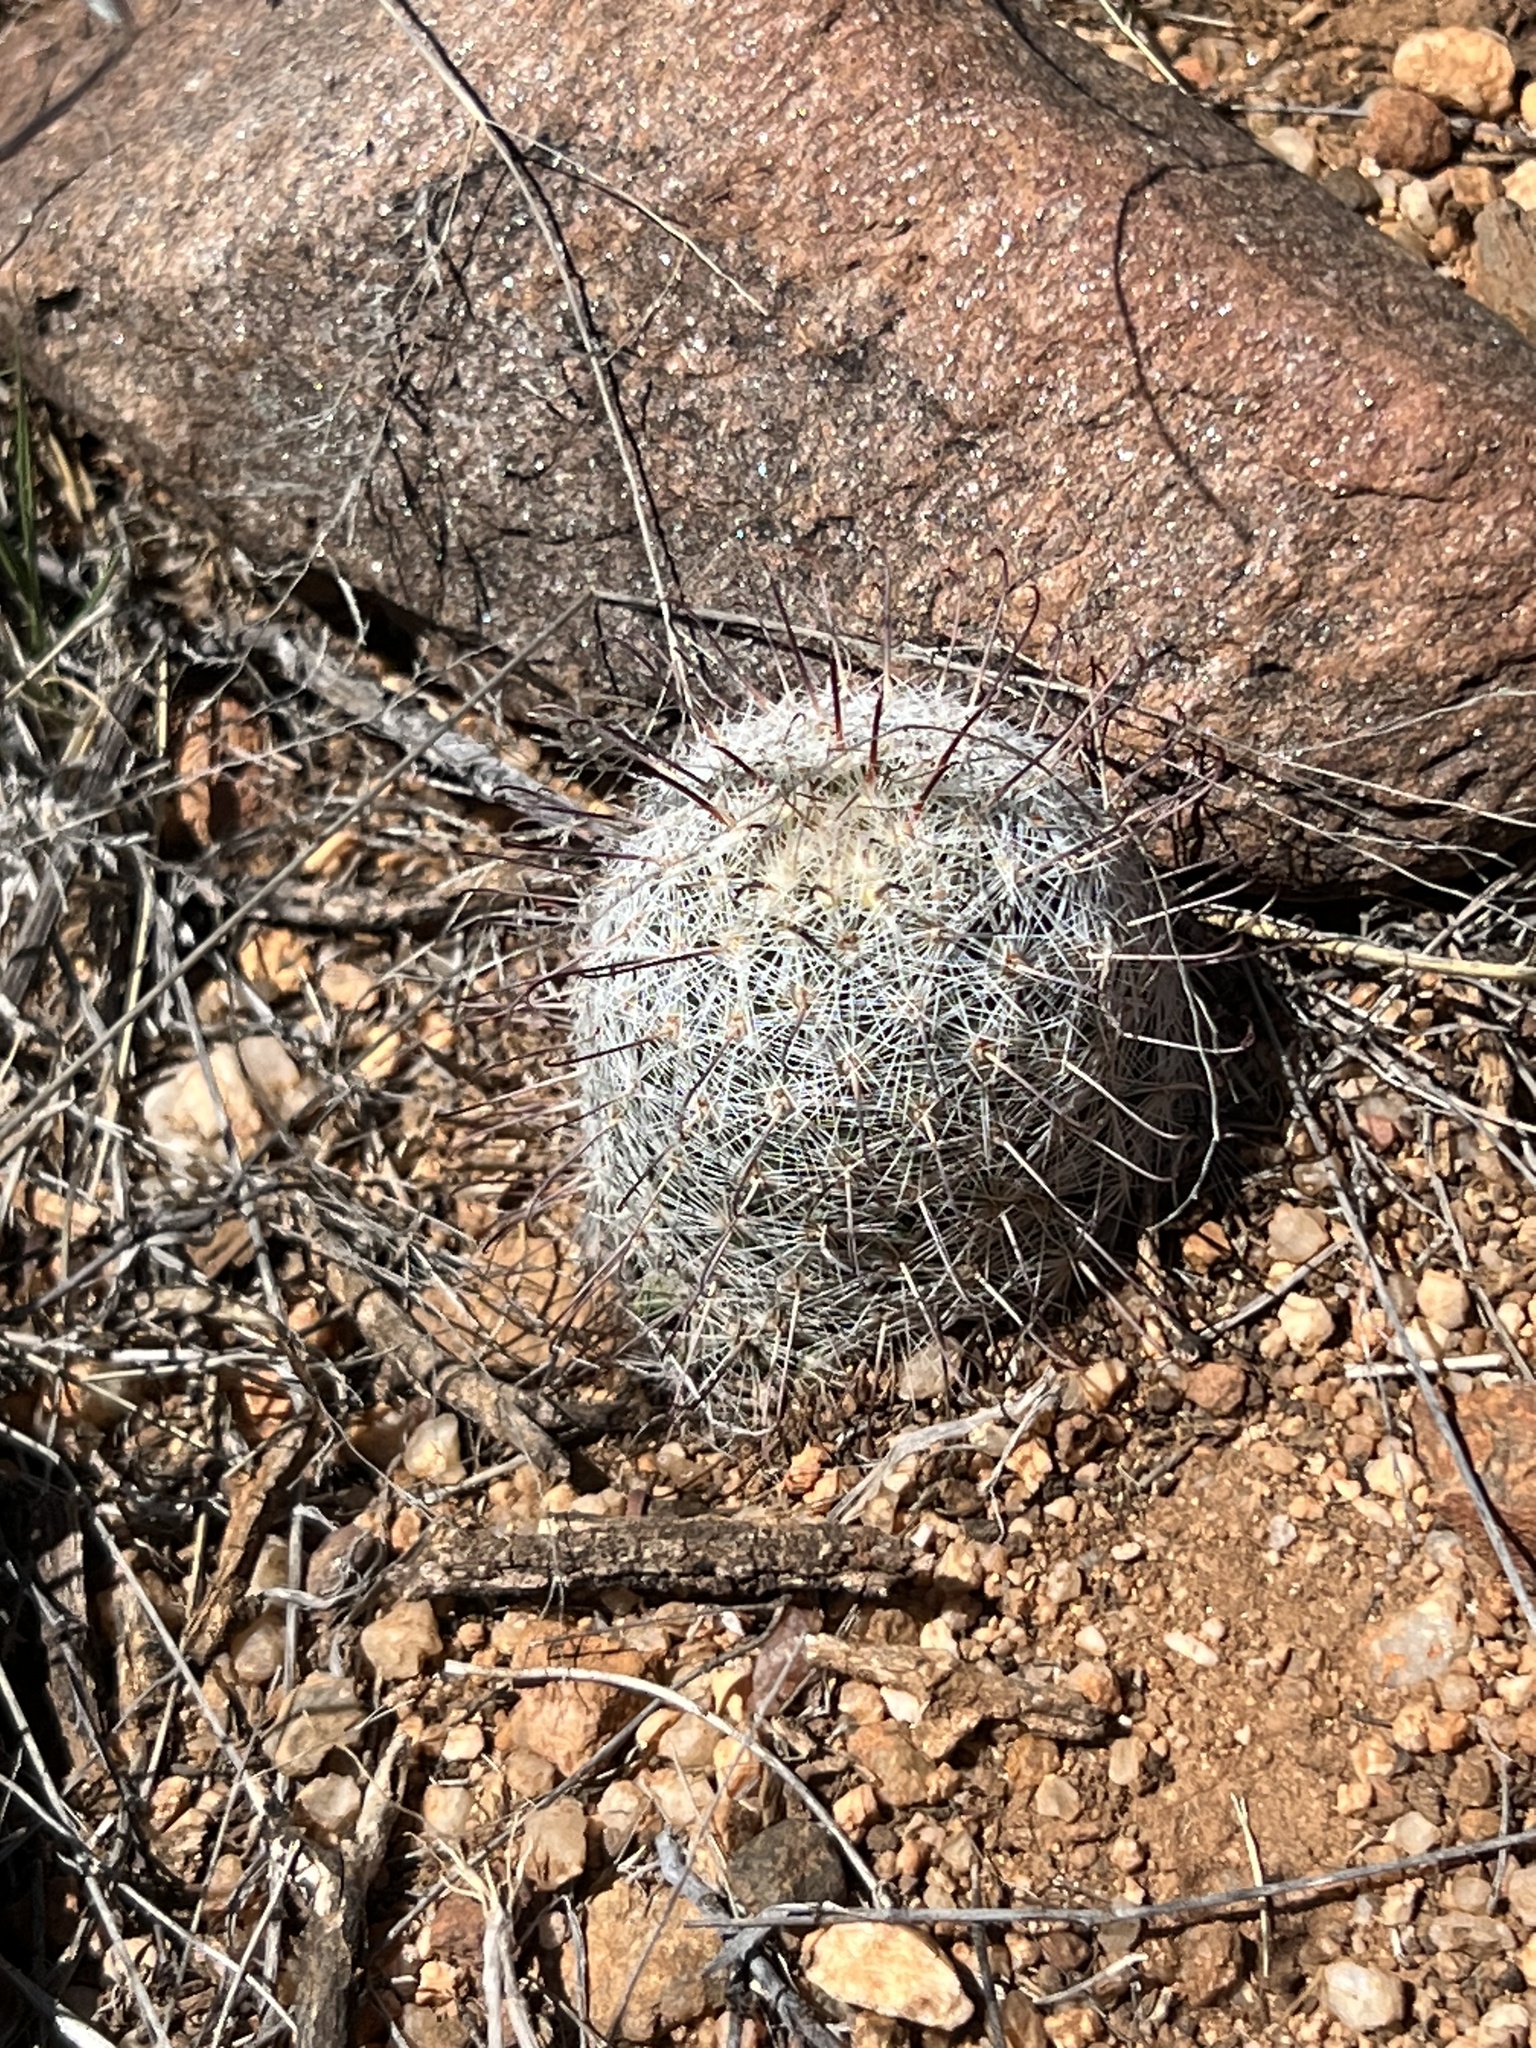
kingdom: Plantae
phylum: Tracheophyta
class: Magnoliopsida
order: Caryophyllales
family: Cactaceae
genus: Cochemiea
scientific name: Cochemiea grahamii
